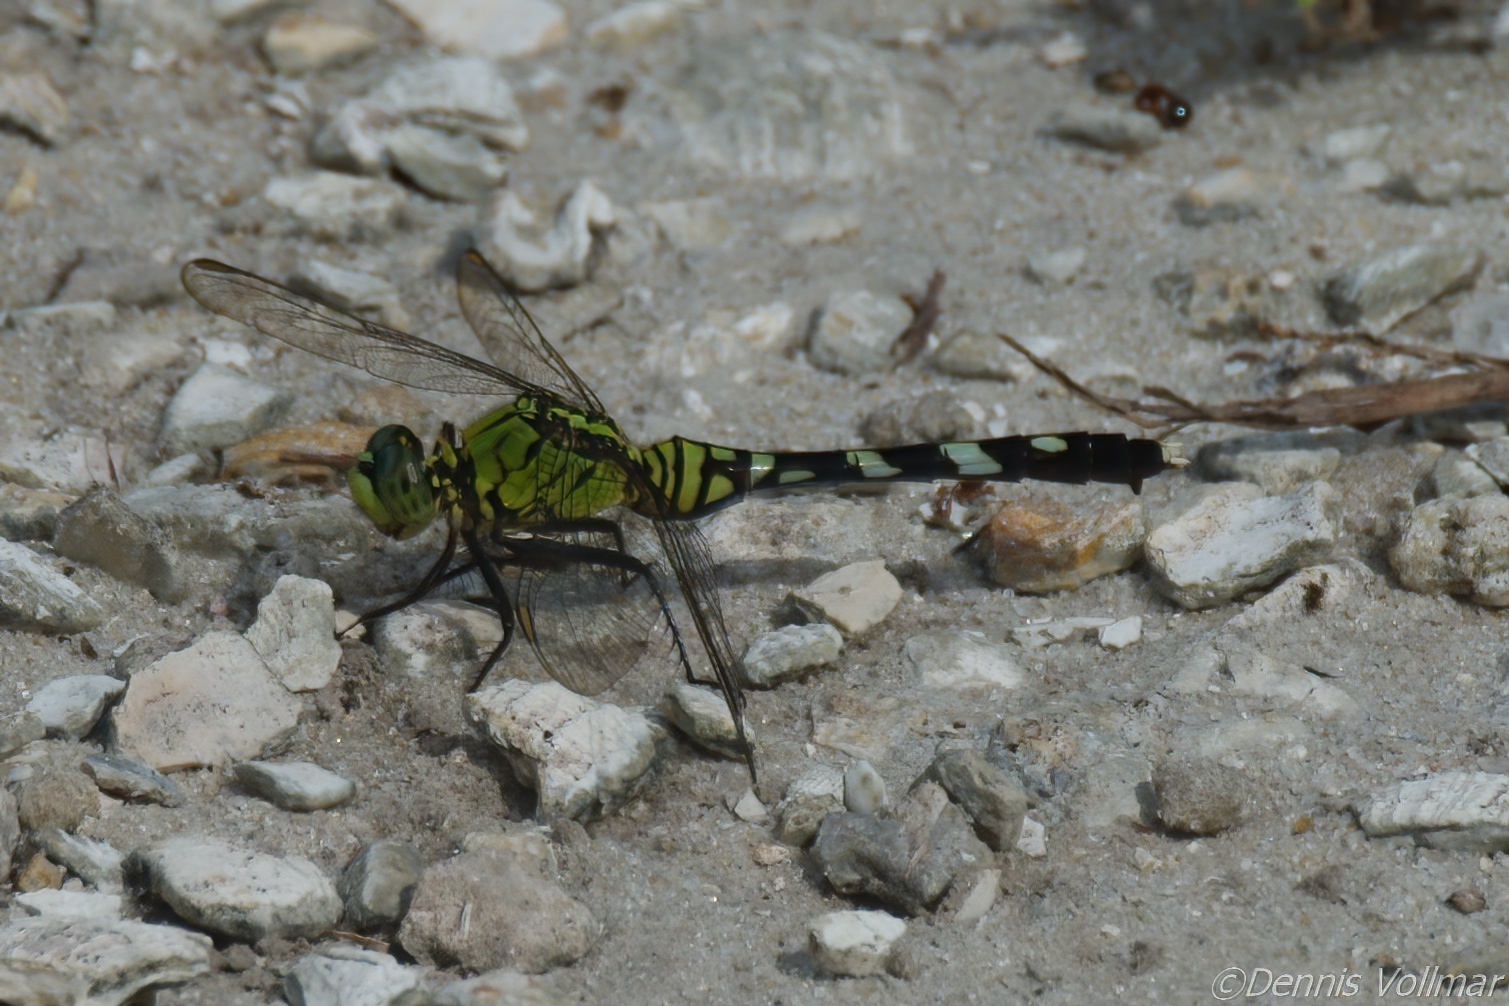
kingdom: Animalia
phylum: Arthropoda
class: Insecta
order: Odonata
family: Libellulidae
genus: Erythemis
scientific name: Erythemis simplicicollis
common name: Eastern pondhawk
